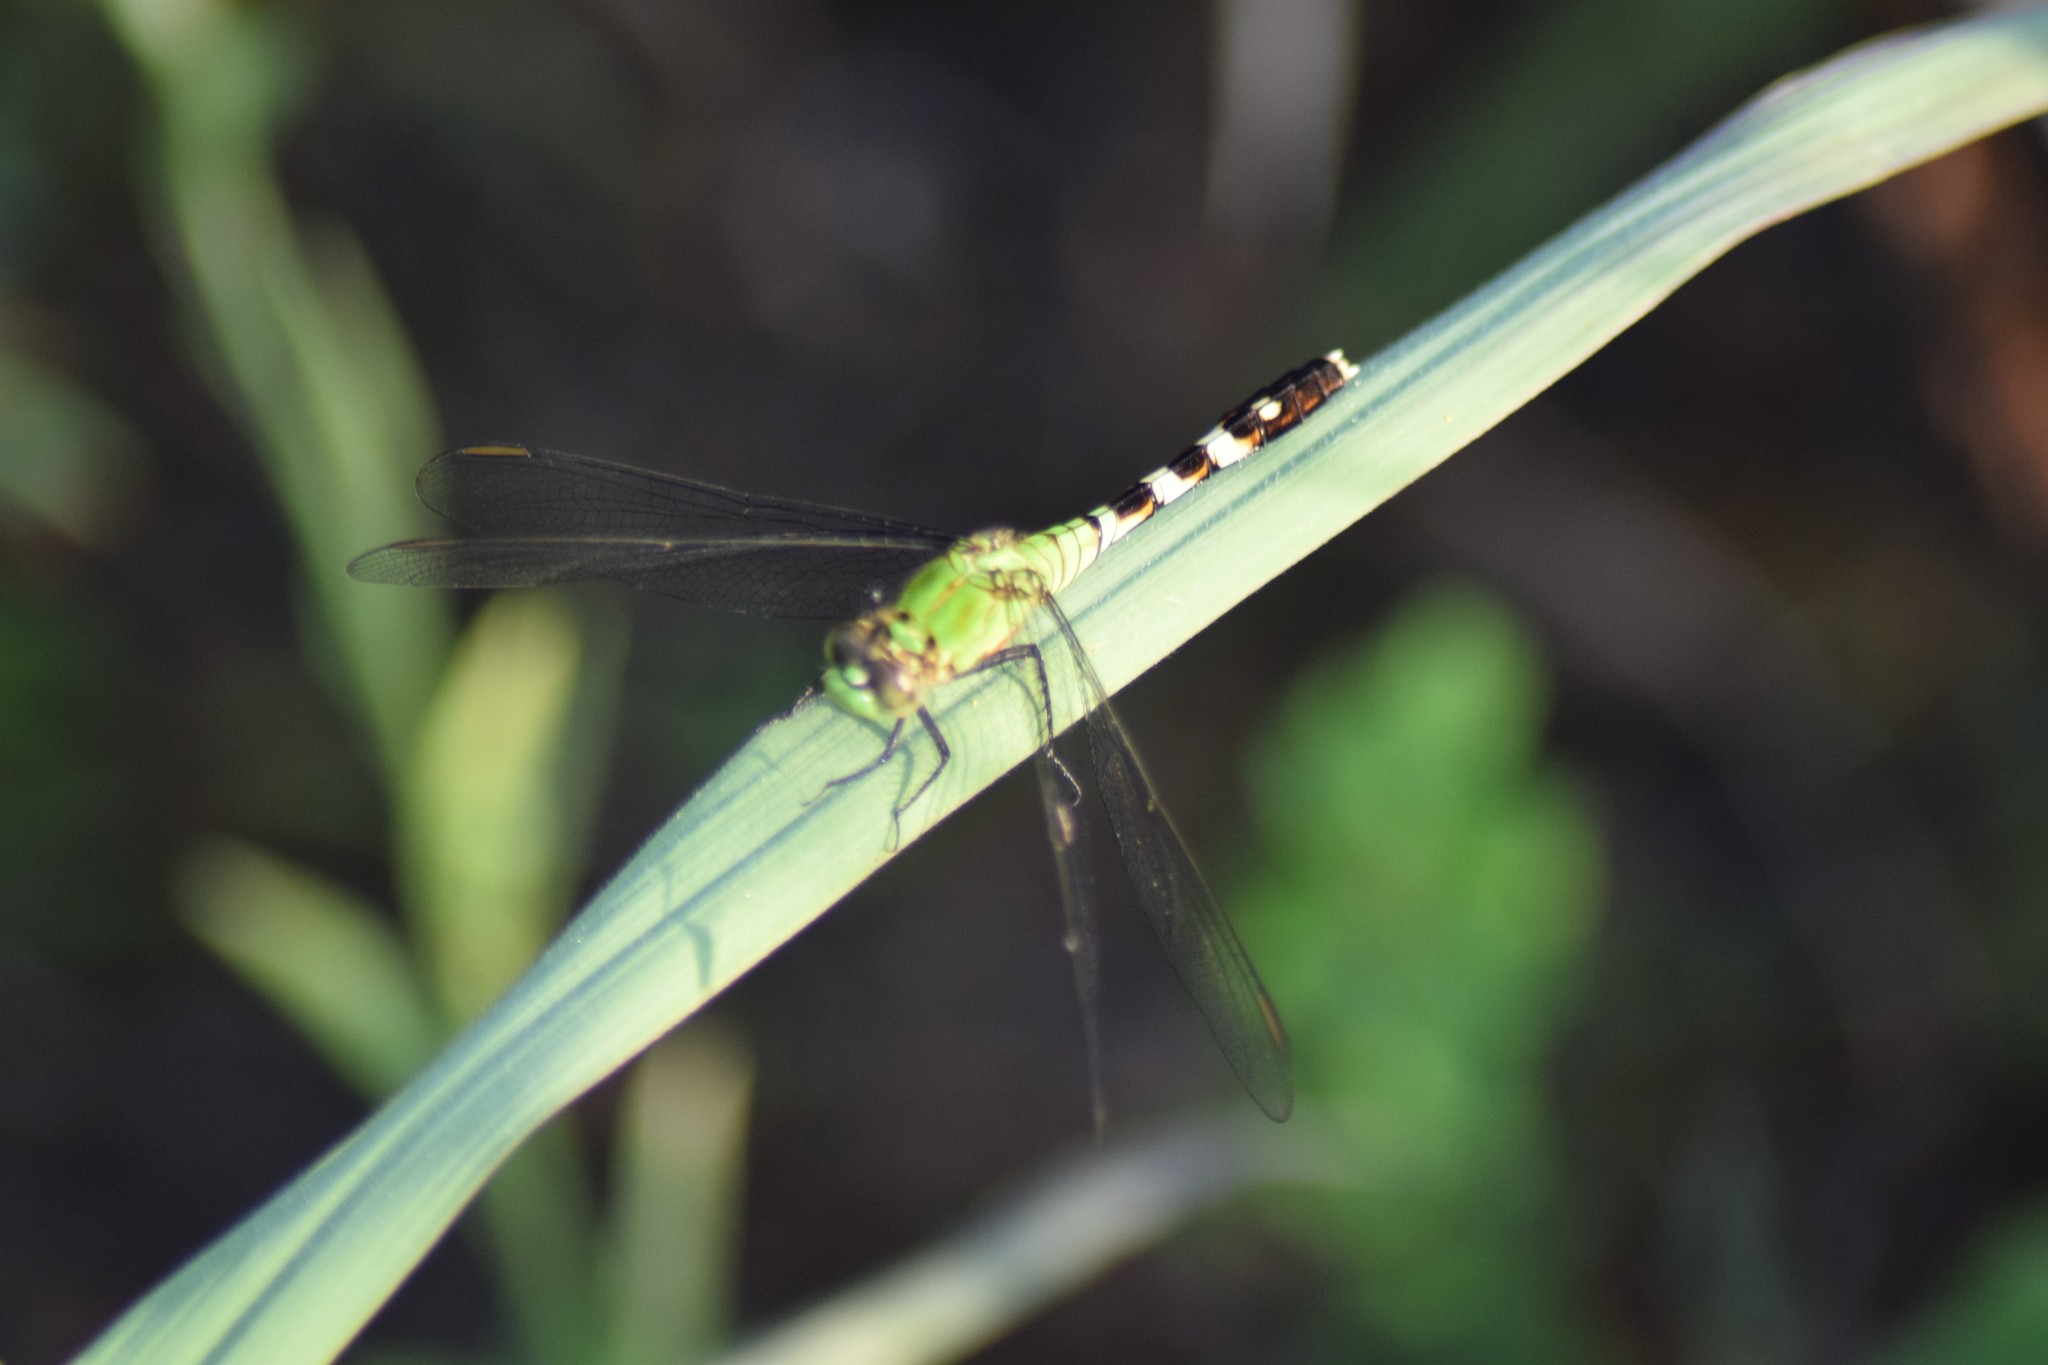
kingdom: Animalia
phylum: Arthropoda
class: Insecta
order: Odonata
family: Libellulidae
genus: Erythemis
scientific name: Erythemis simplicicollis
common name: Eastern pondhawk
